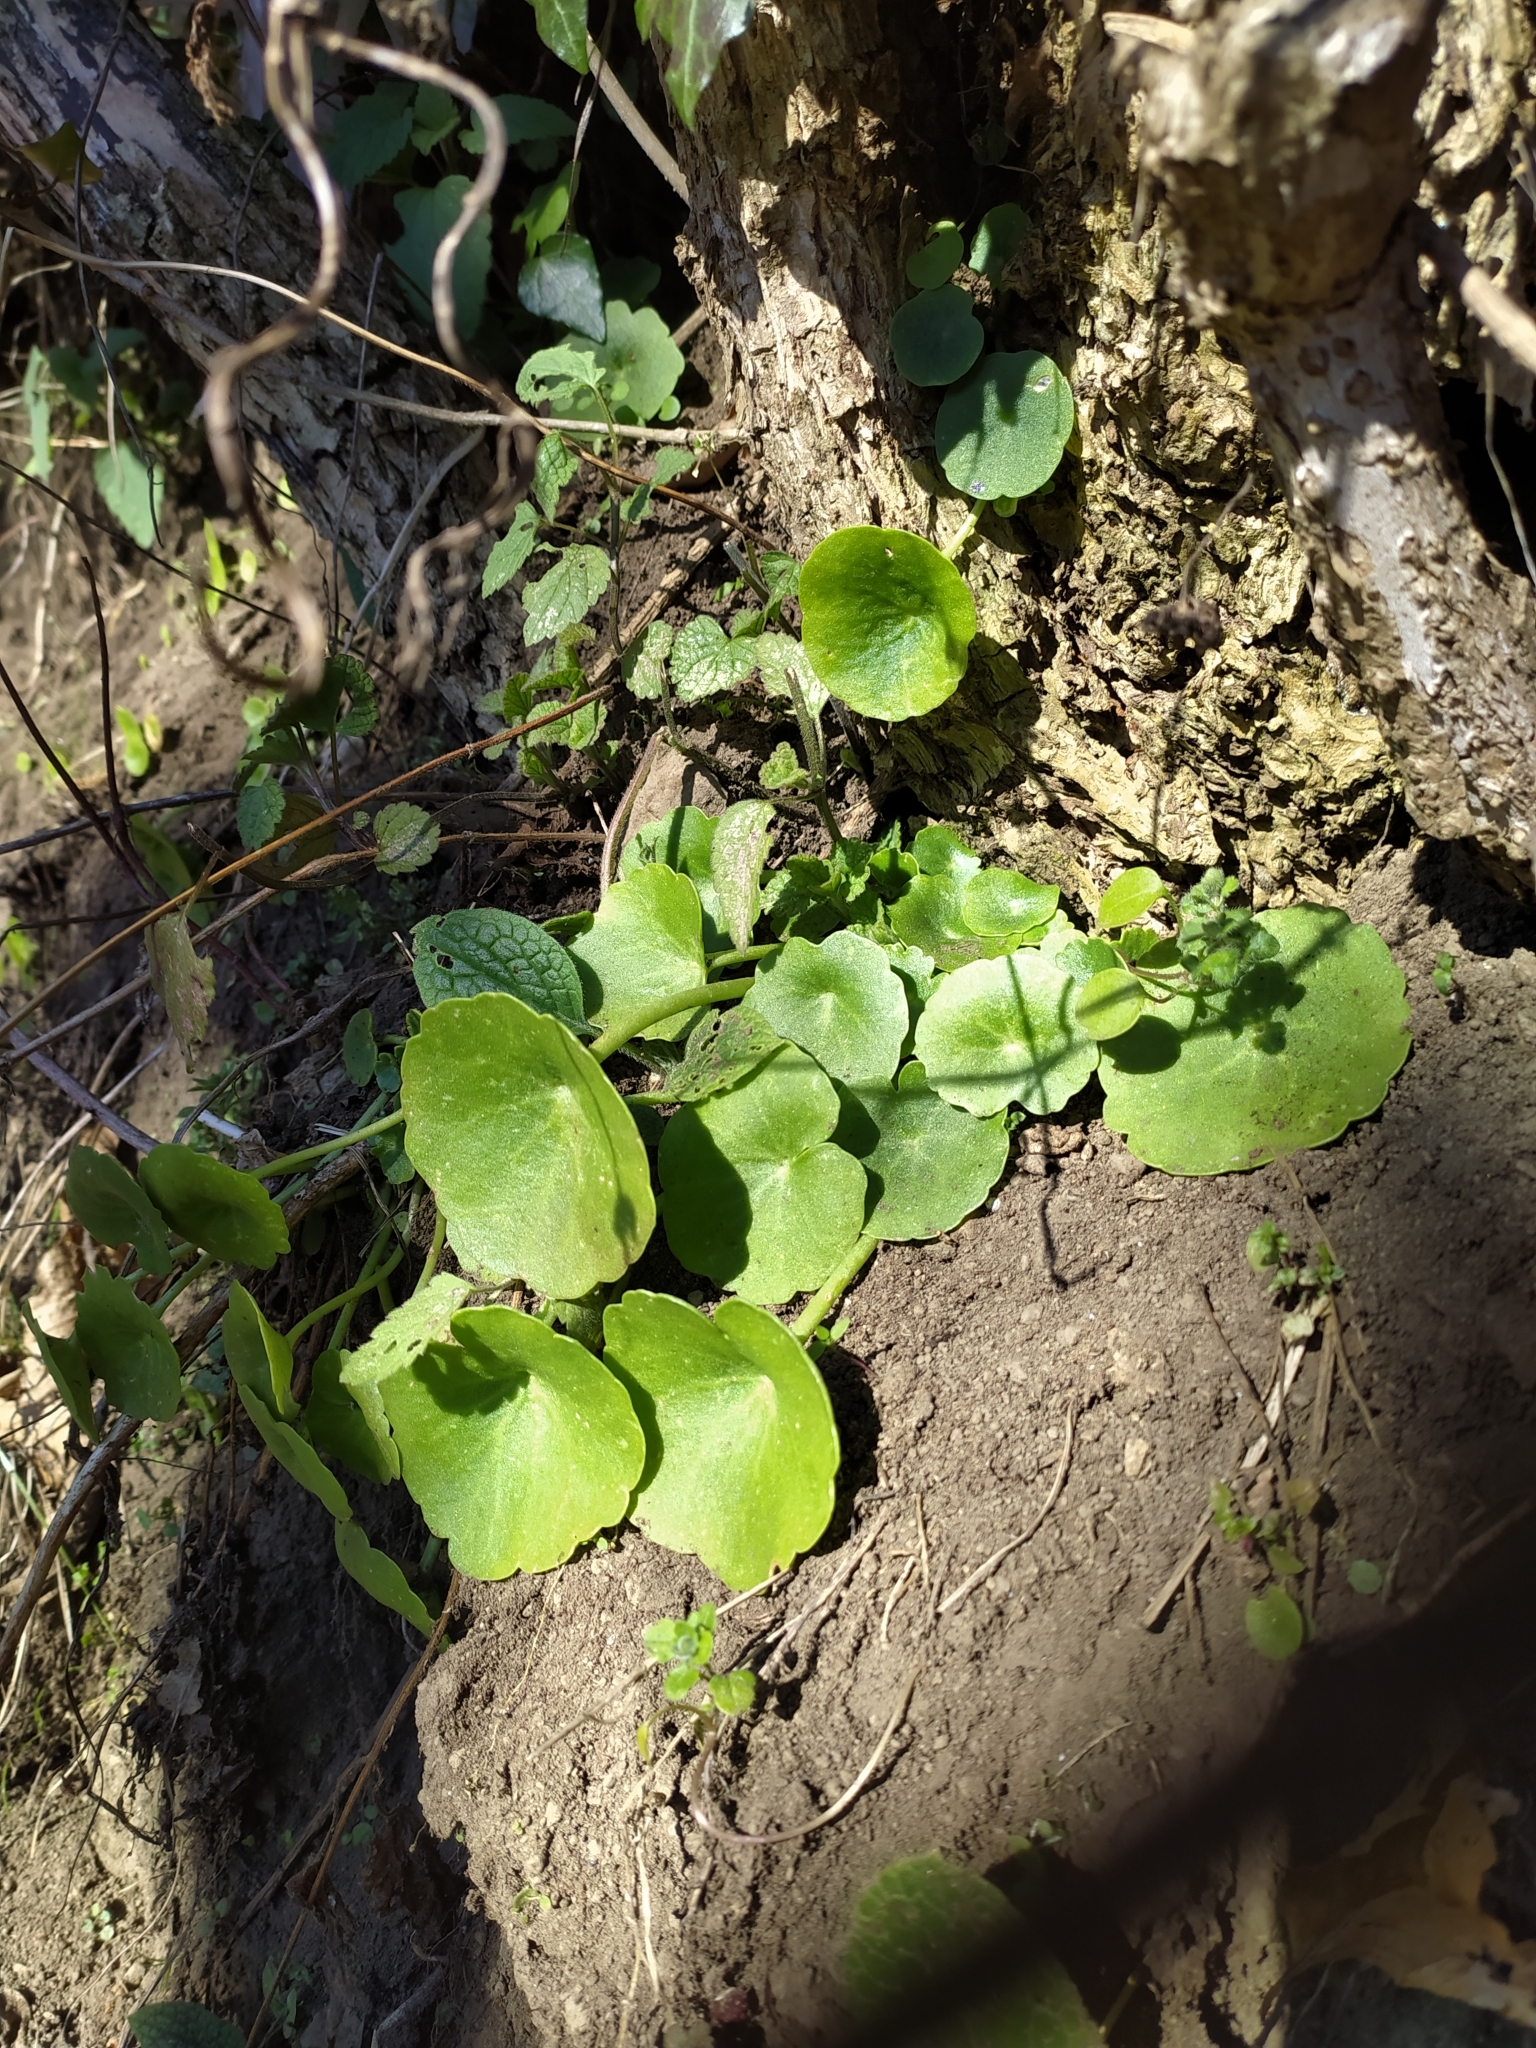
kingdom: Plantae
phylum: Tracheophyta
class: Magnoliopsida
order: Saxifragales
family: Crassulaceae
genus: Umbilicus
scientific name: Umbilicus rupestris
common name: Navelwort
